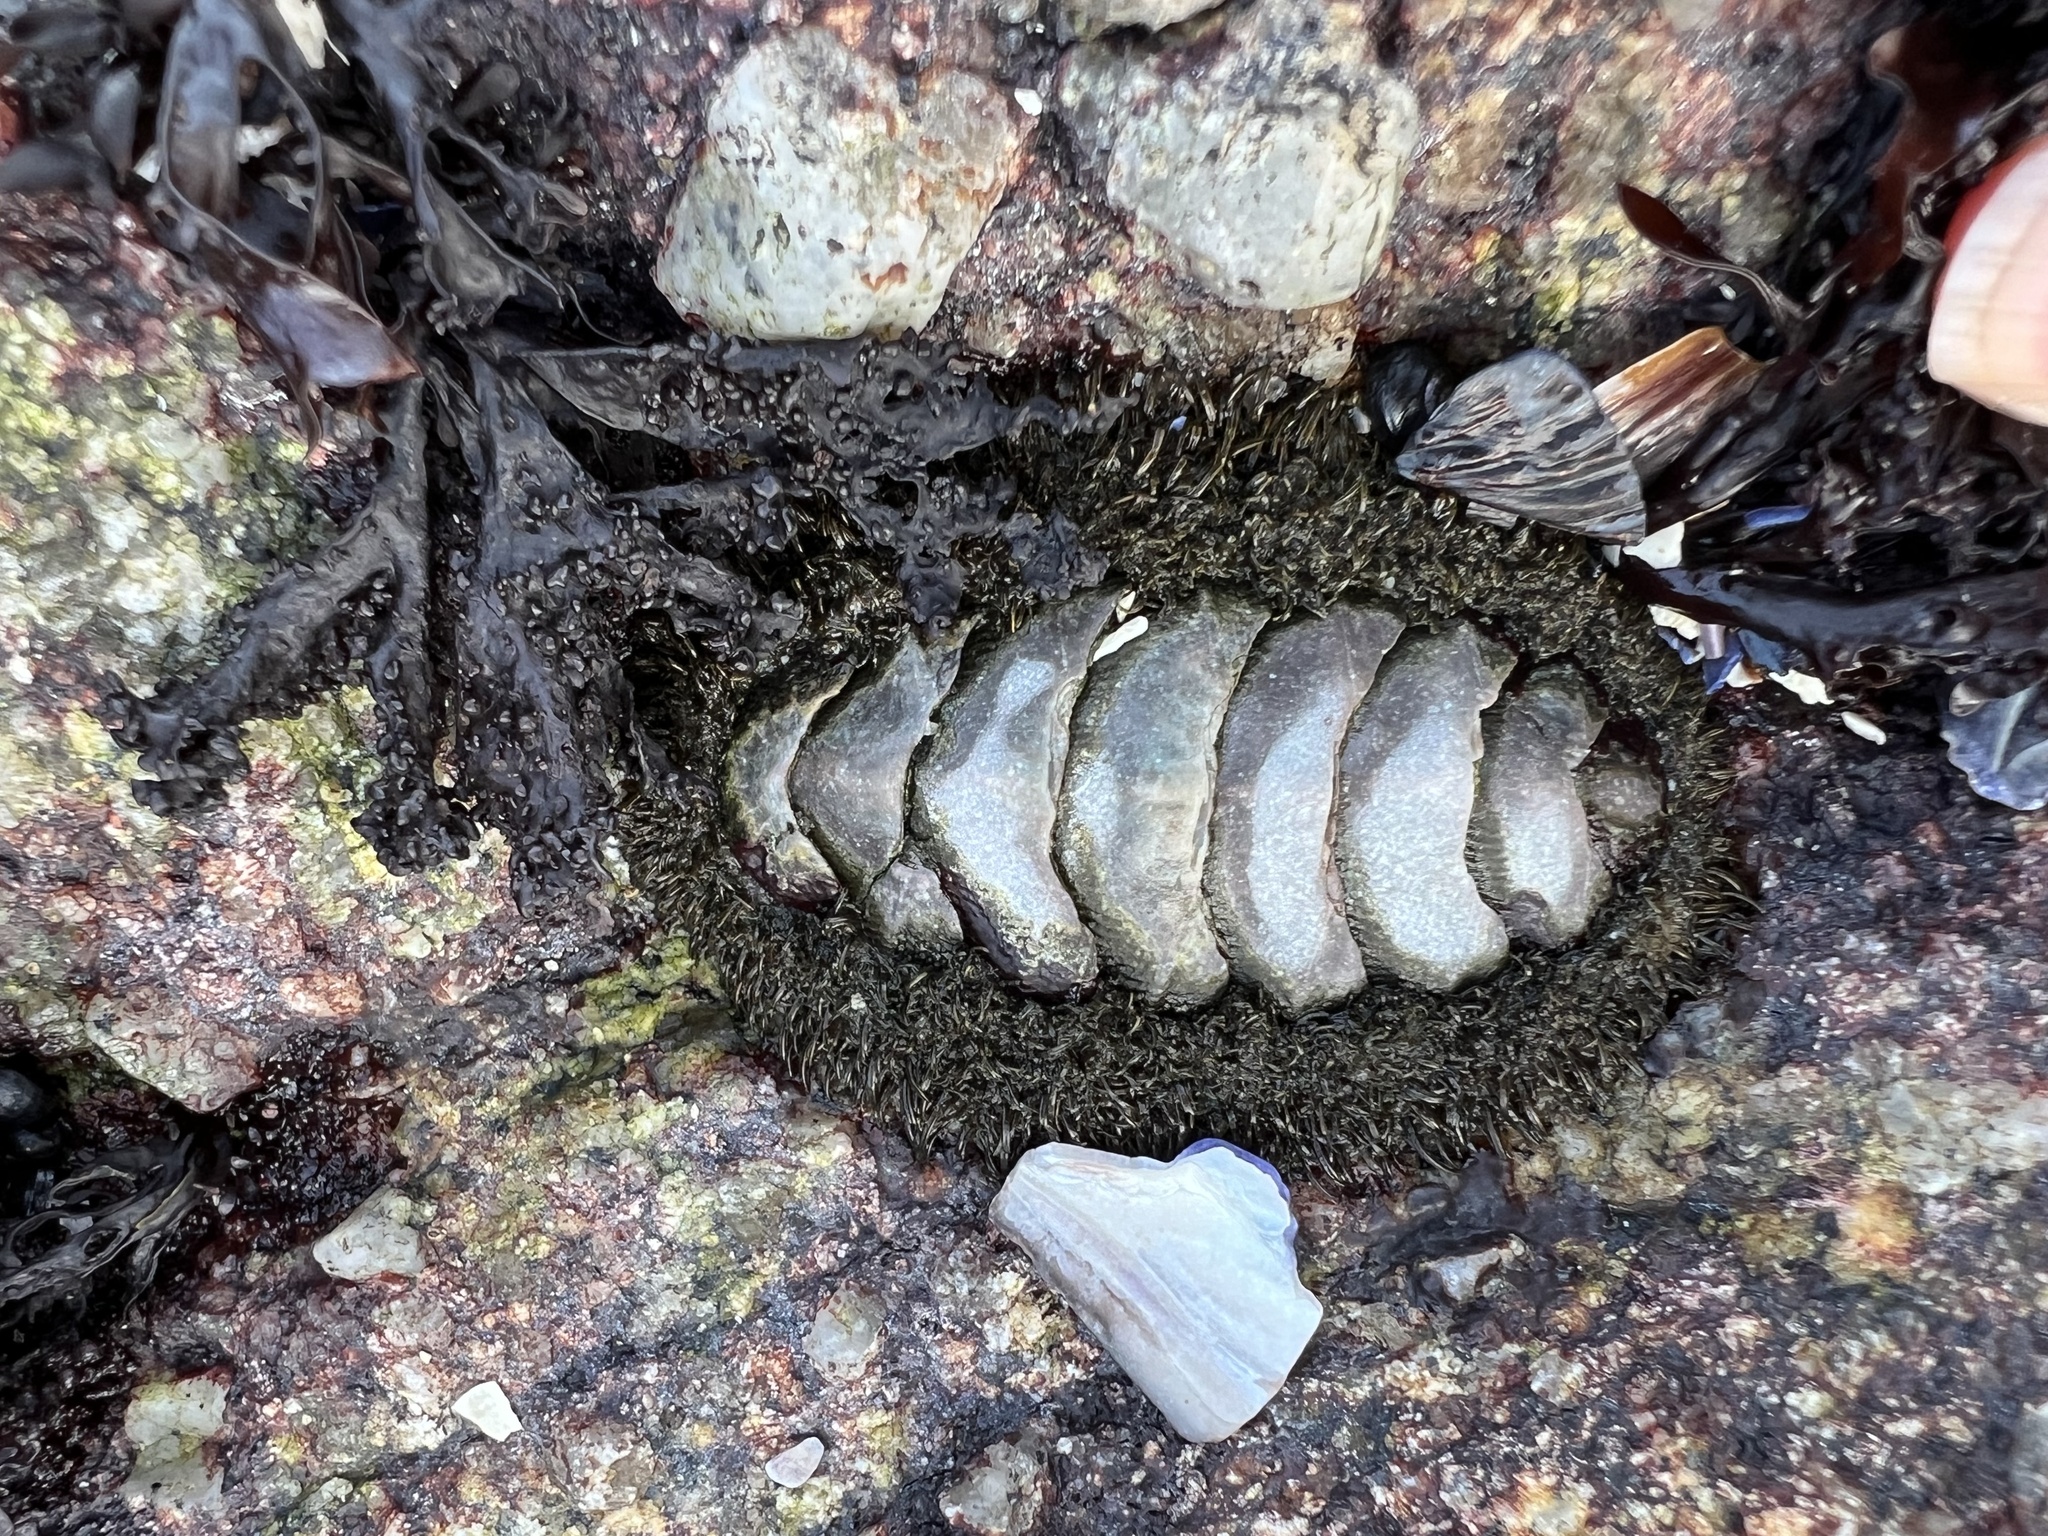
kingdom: Animalia
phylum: Mollusca
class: Polyplacophora
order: Chitonida
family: Mopaliidae
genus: Mopalia
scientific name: Mopalia muscosa
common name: Mossy chiton
